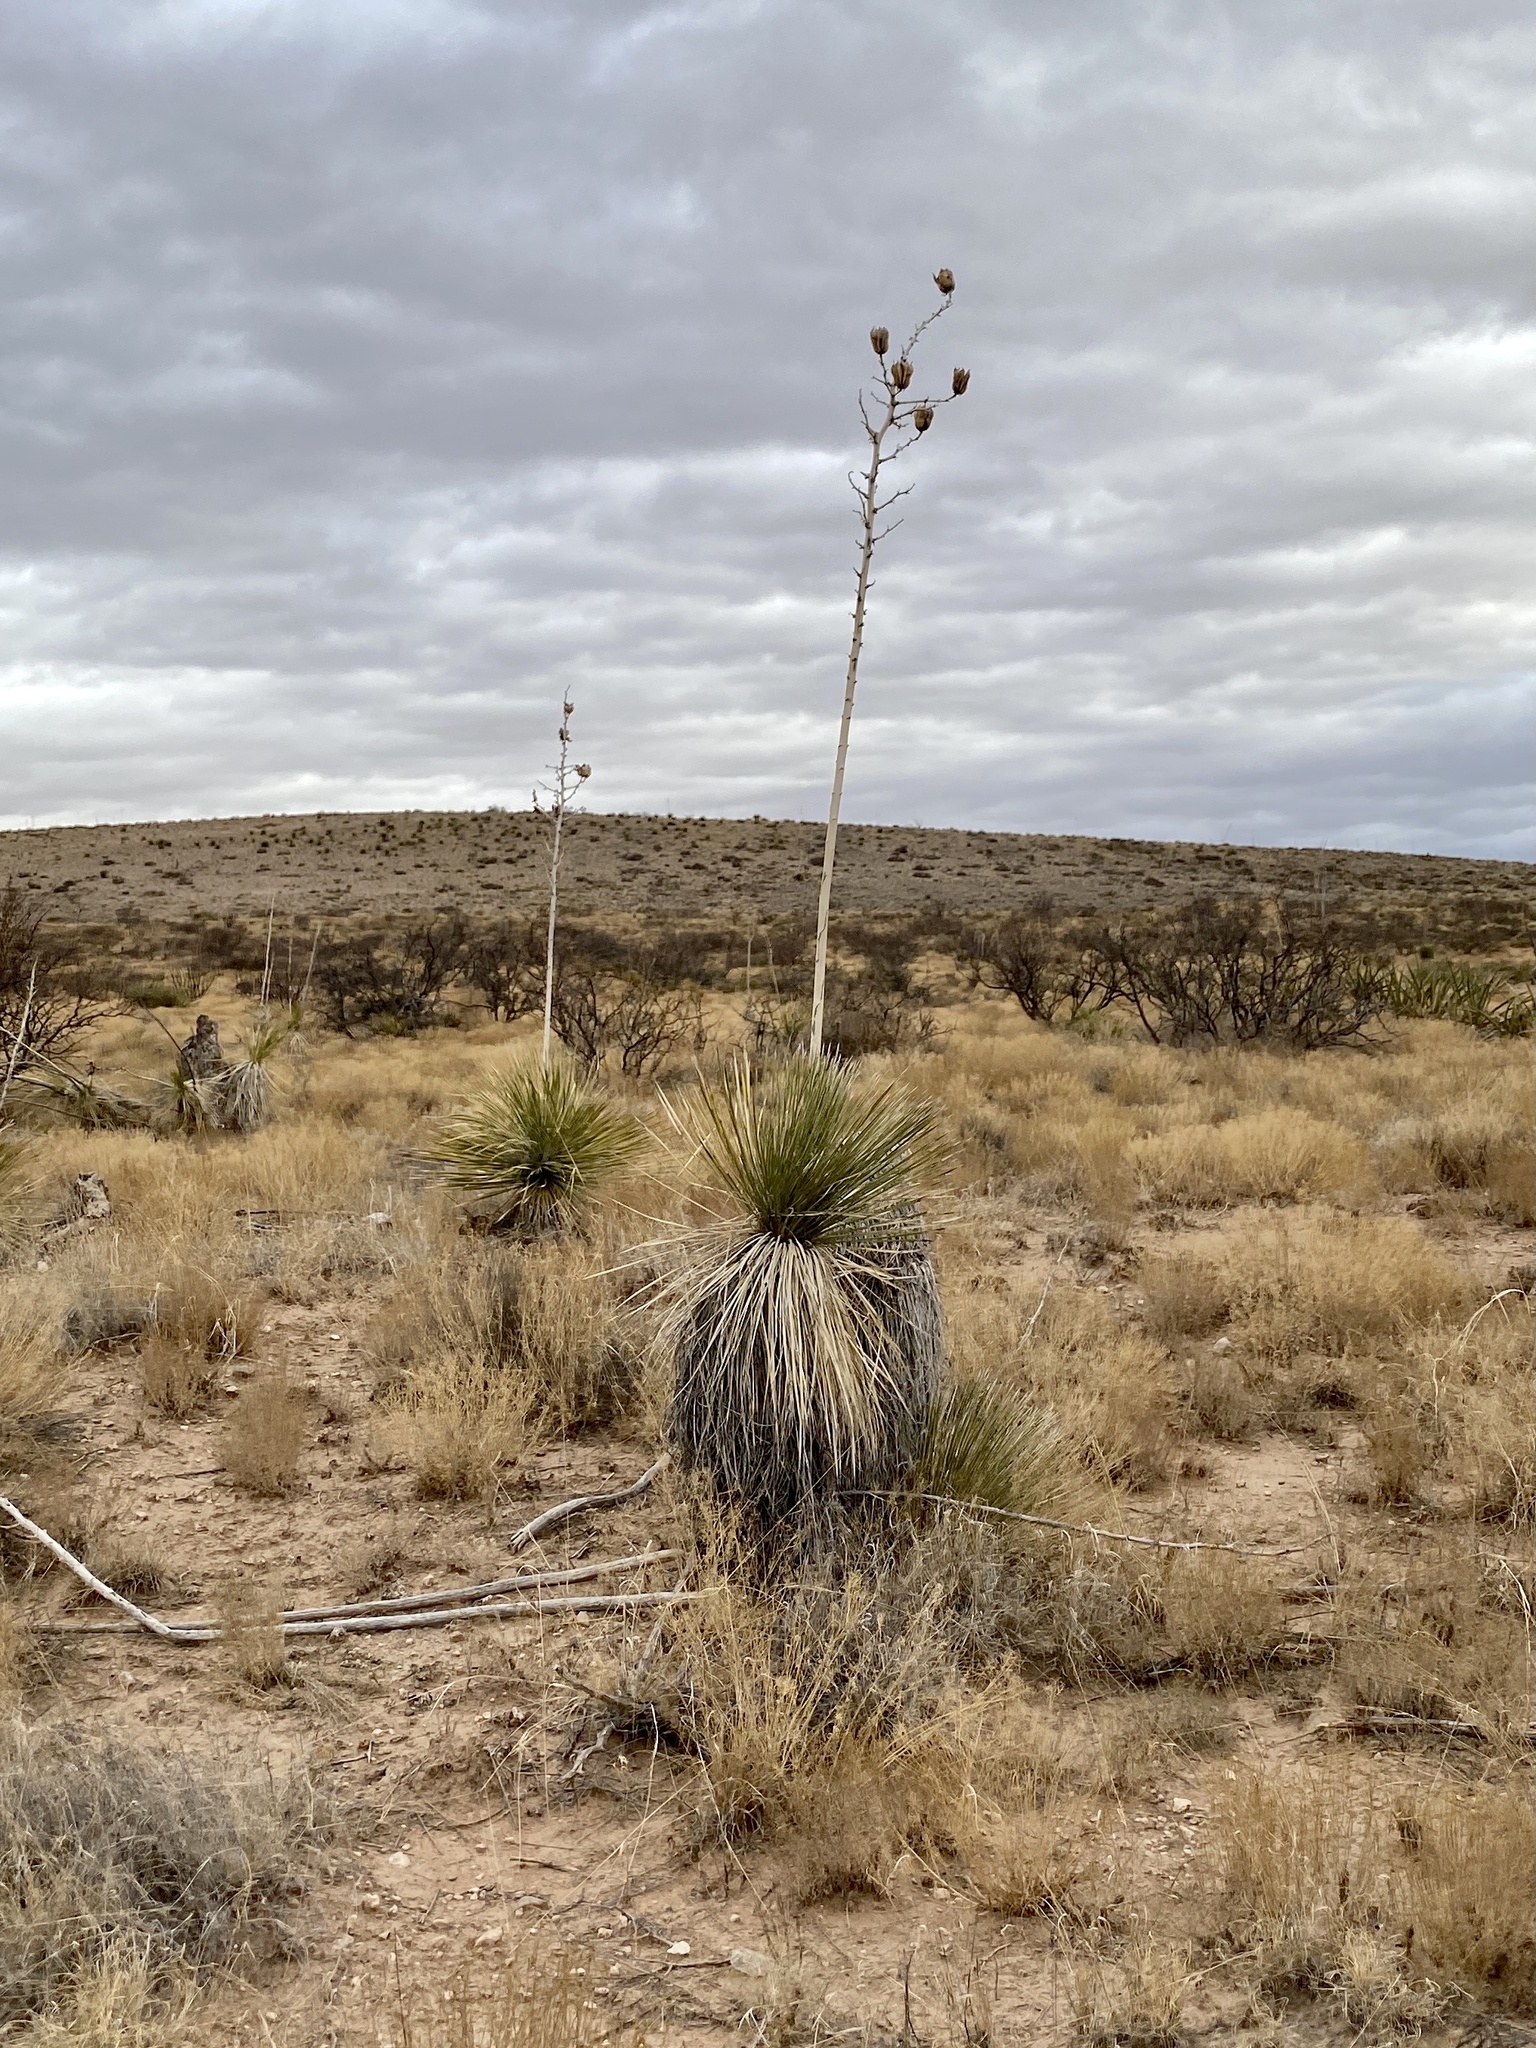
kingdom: Plantae
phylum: Tracheophyta
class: Liliopsida
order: Asparagales
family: Asparagaceae
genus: Yucca
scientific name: Yucca elata
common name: Palmella
